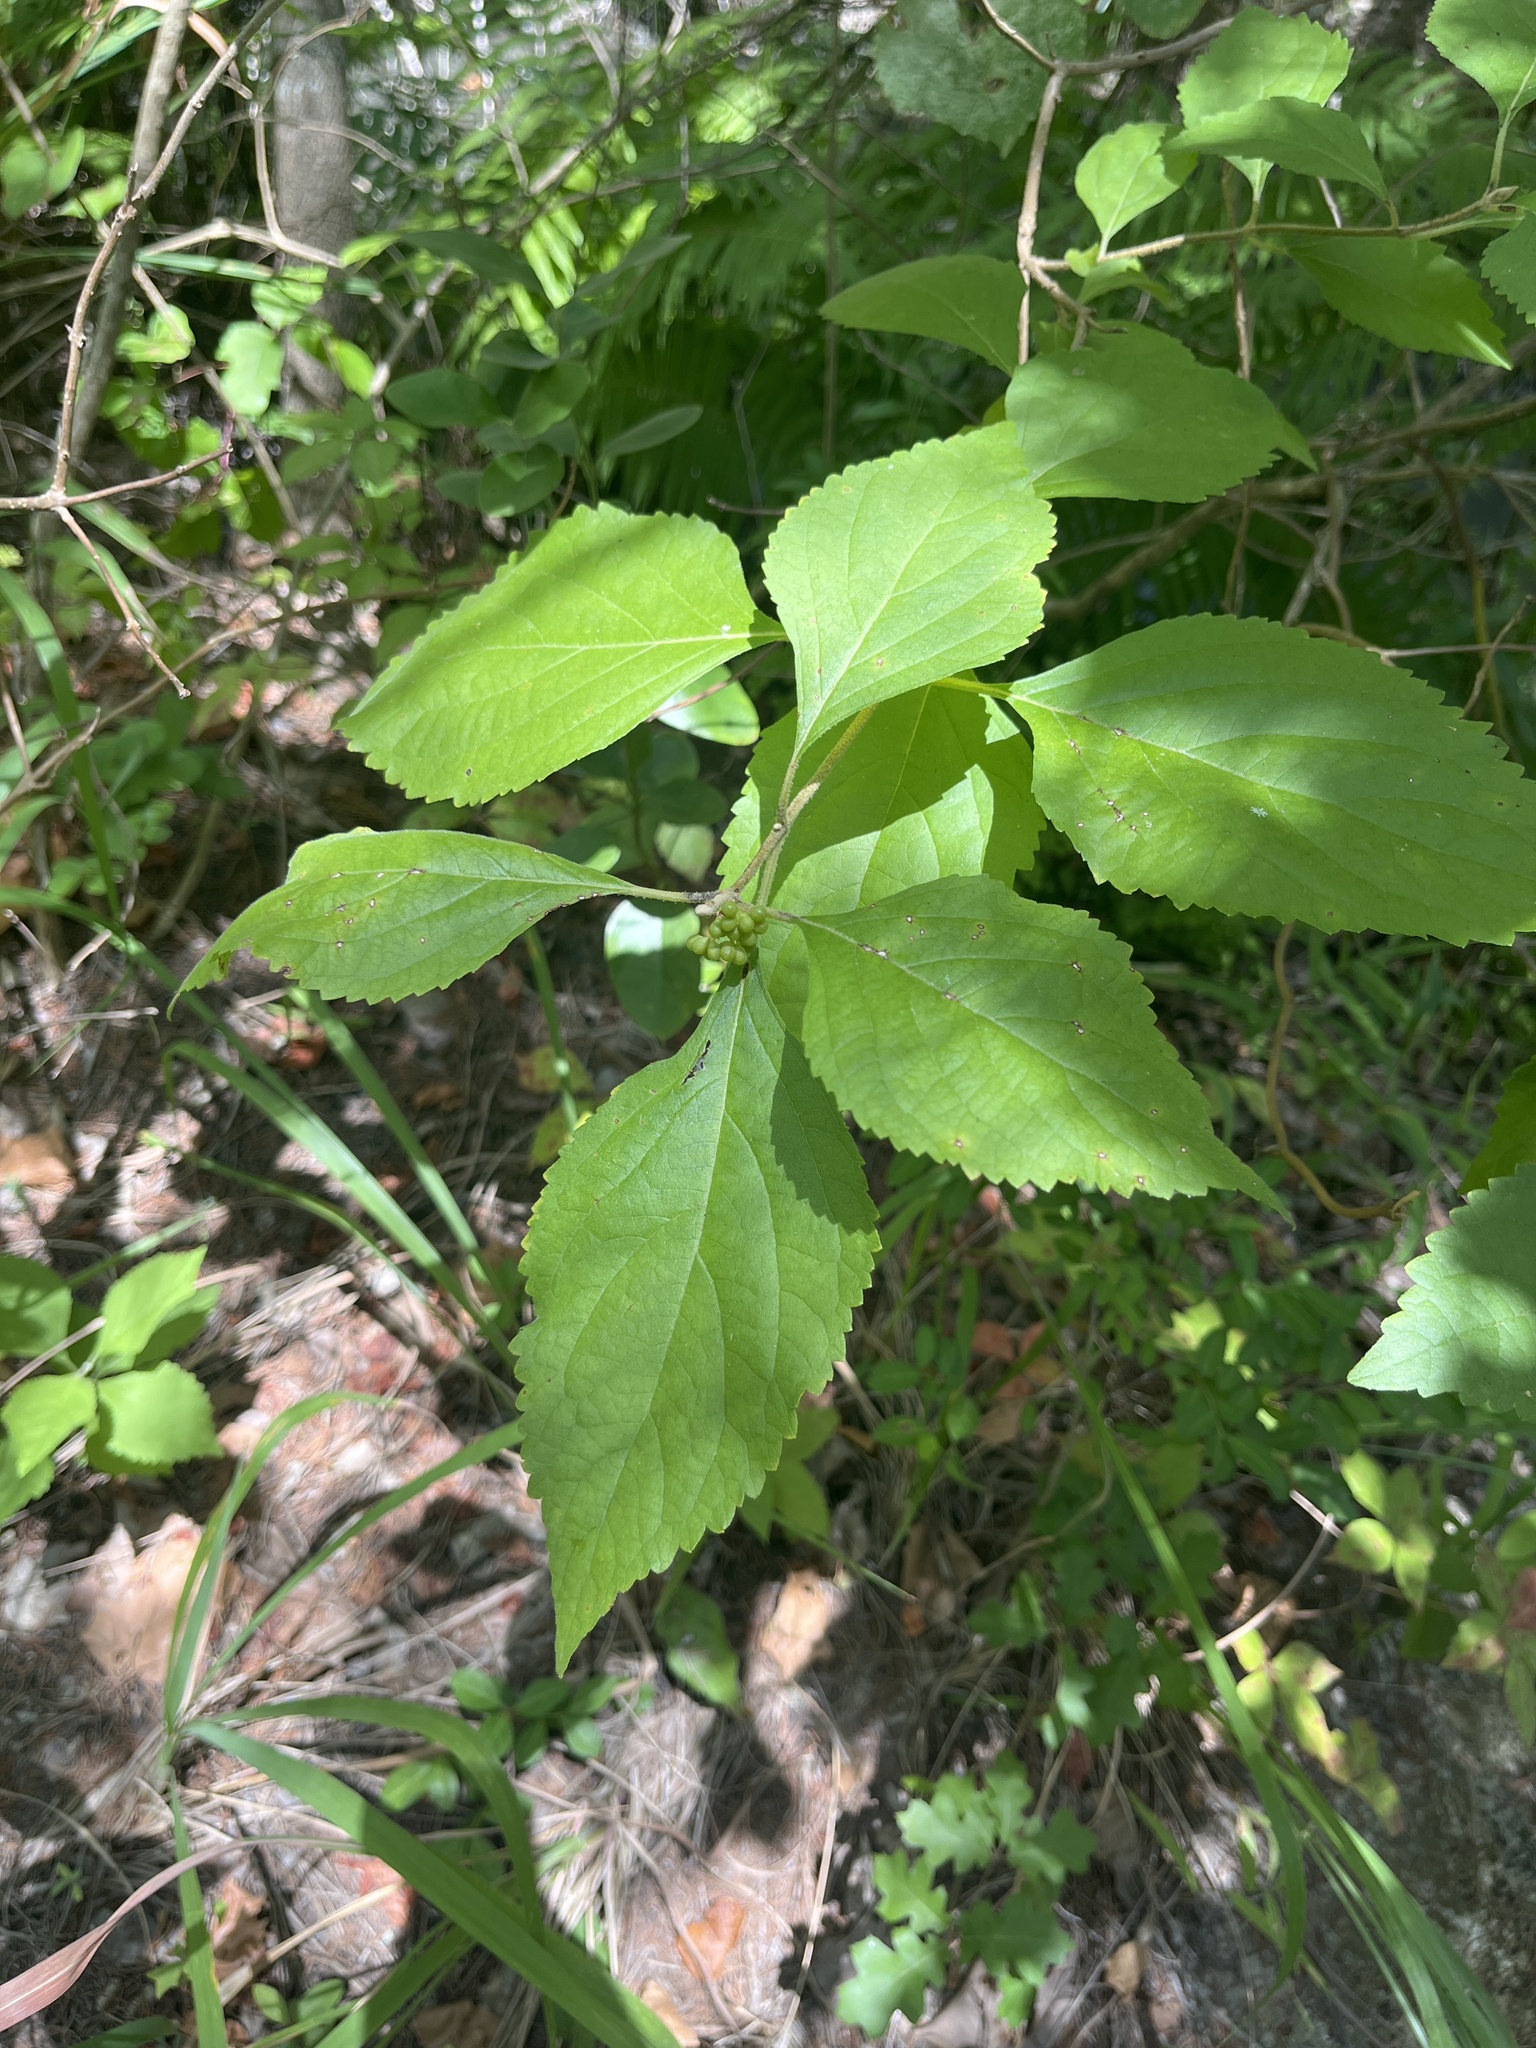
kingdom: Plantae
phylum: Tracheophyta
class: Magnoliopsida
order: Lamiales
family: Lamiaceae
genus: Callicarpa
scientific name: Callicarpa americana
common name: American beautyberry
